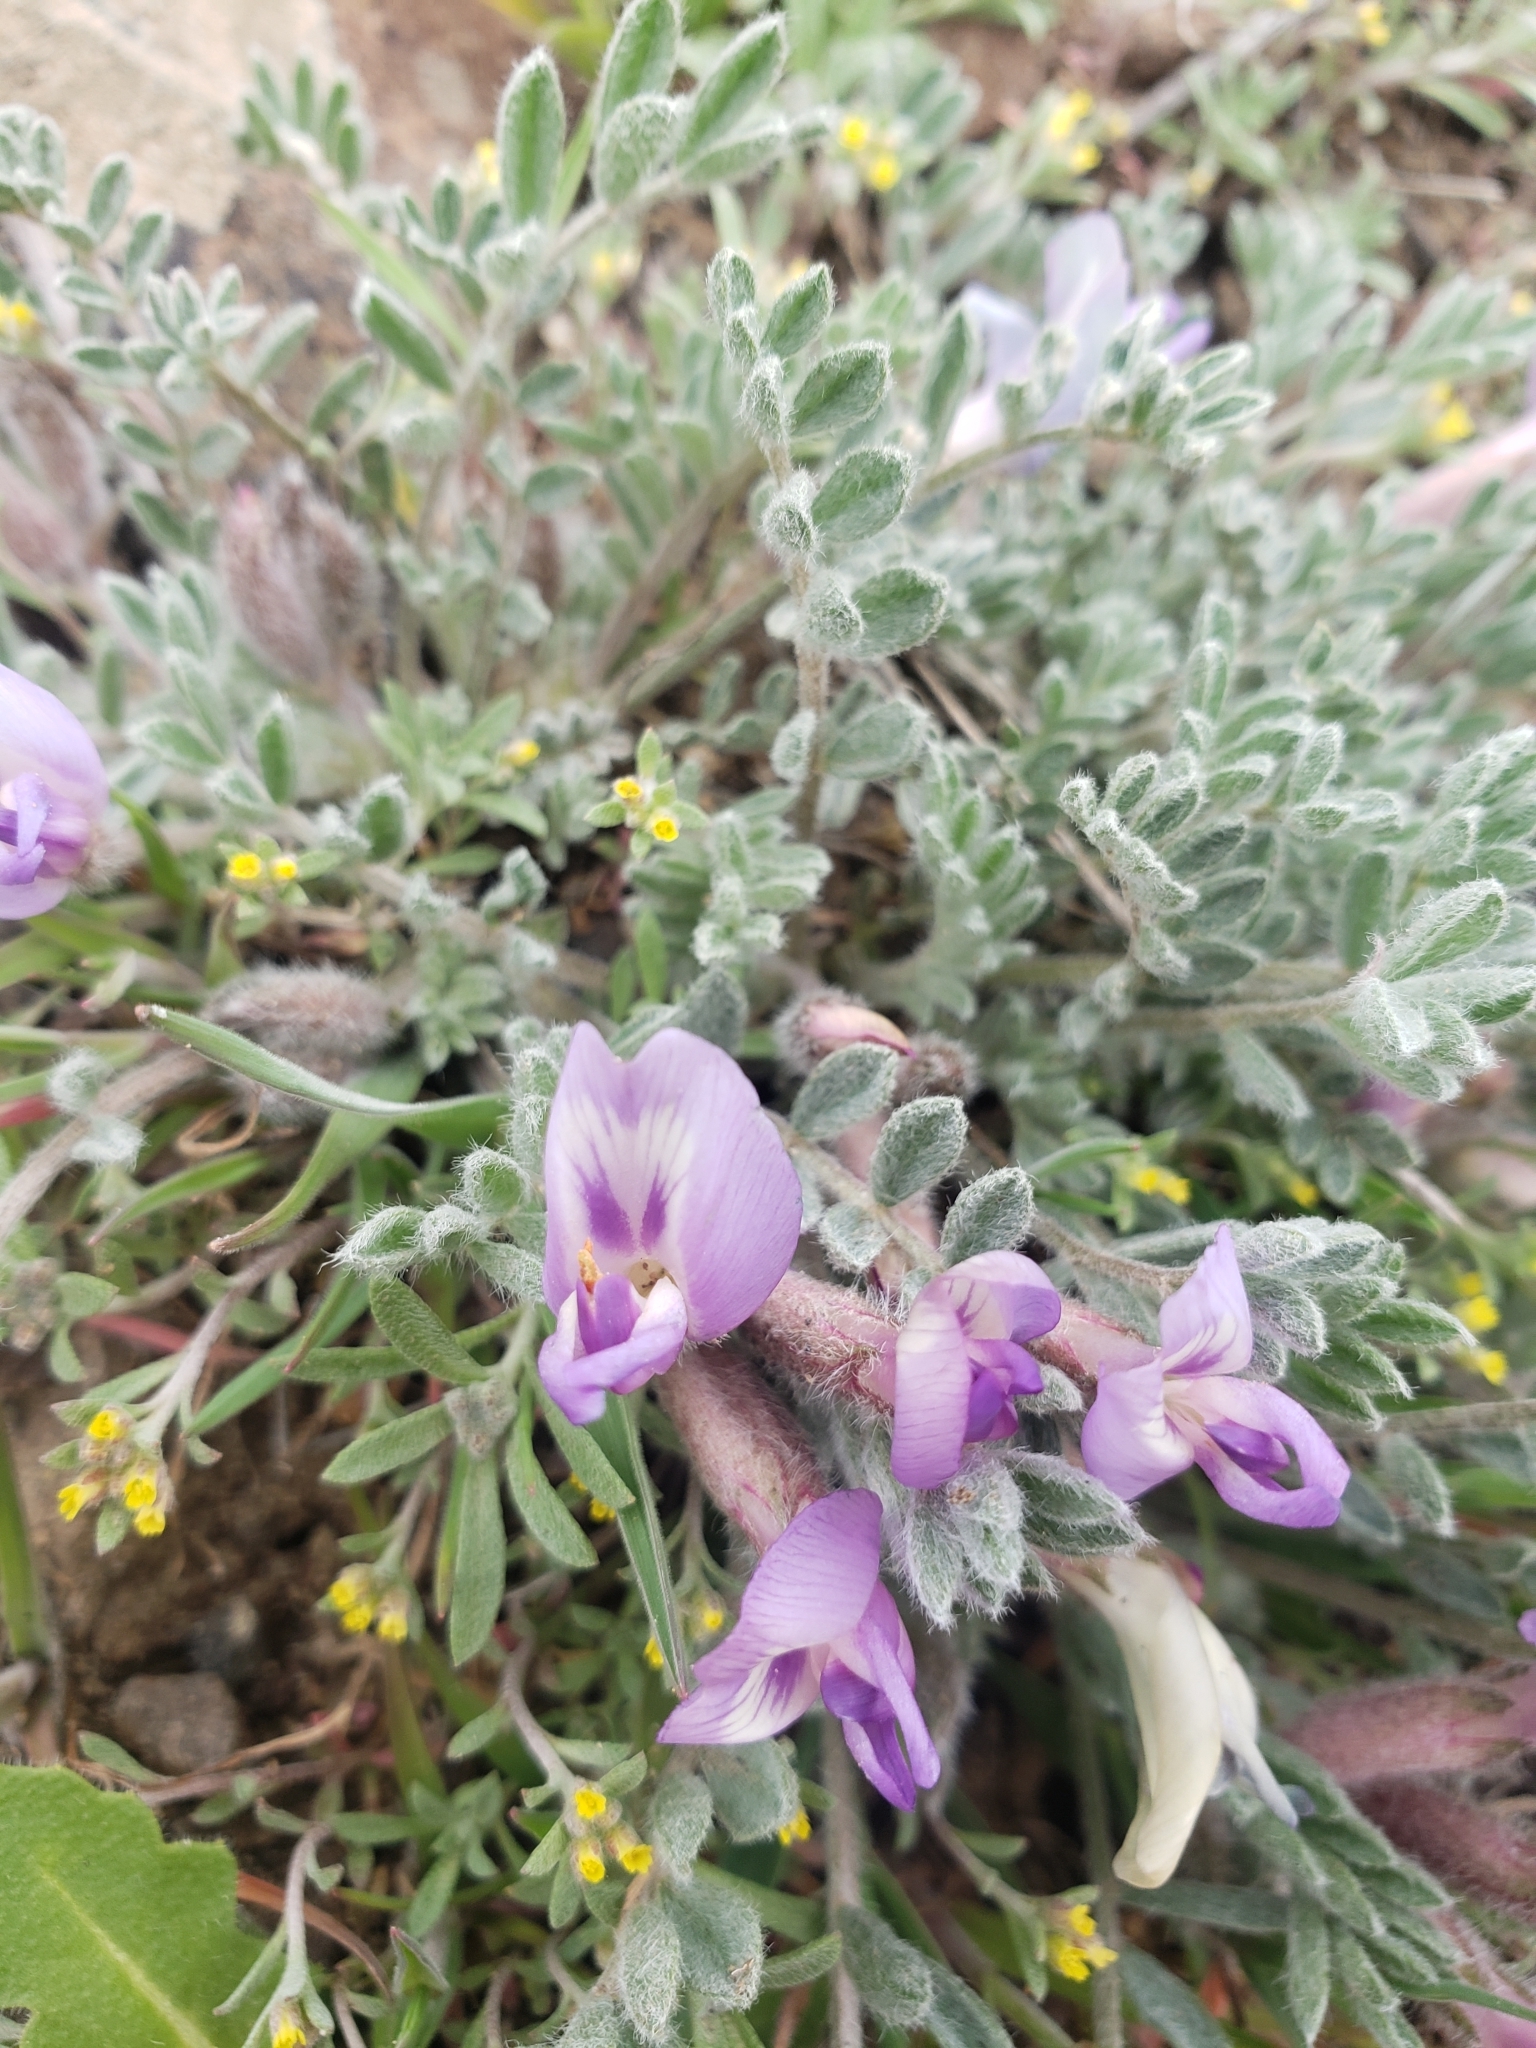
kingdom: Plantae
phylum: Tracheophyta
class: Magnoliopsida
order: Fabales
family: Fabaceae
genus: Astragalus
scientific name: Astragalus purshii
